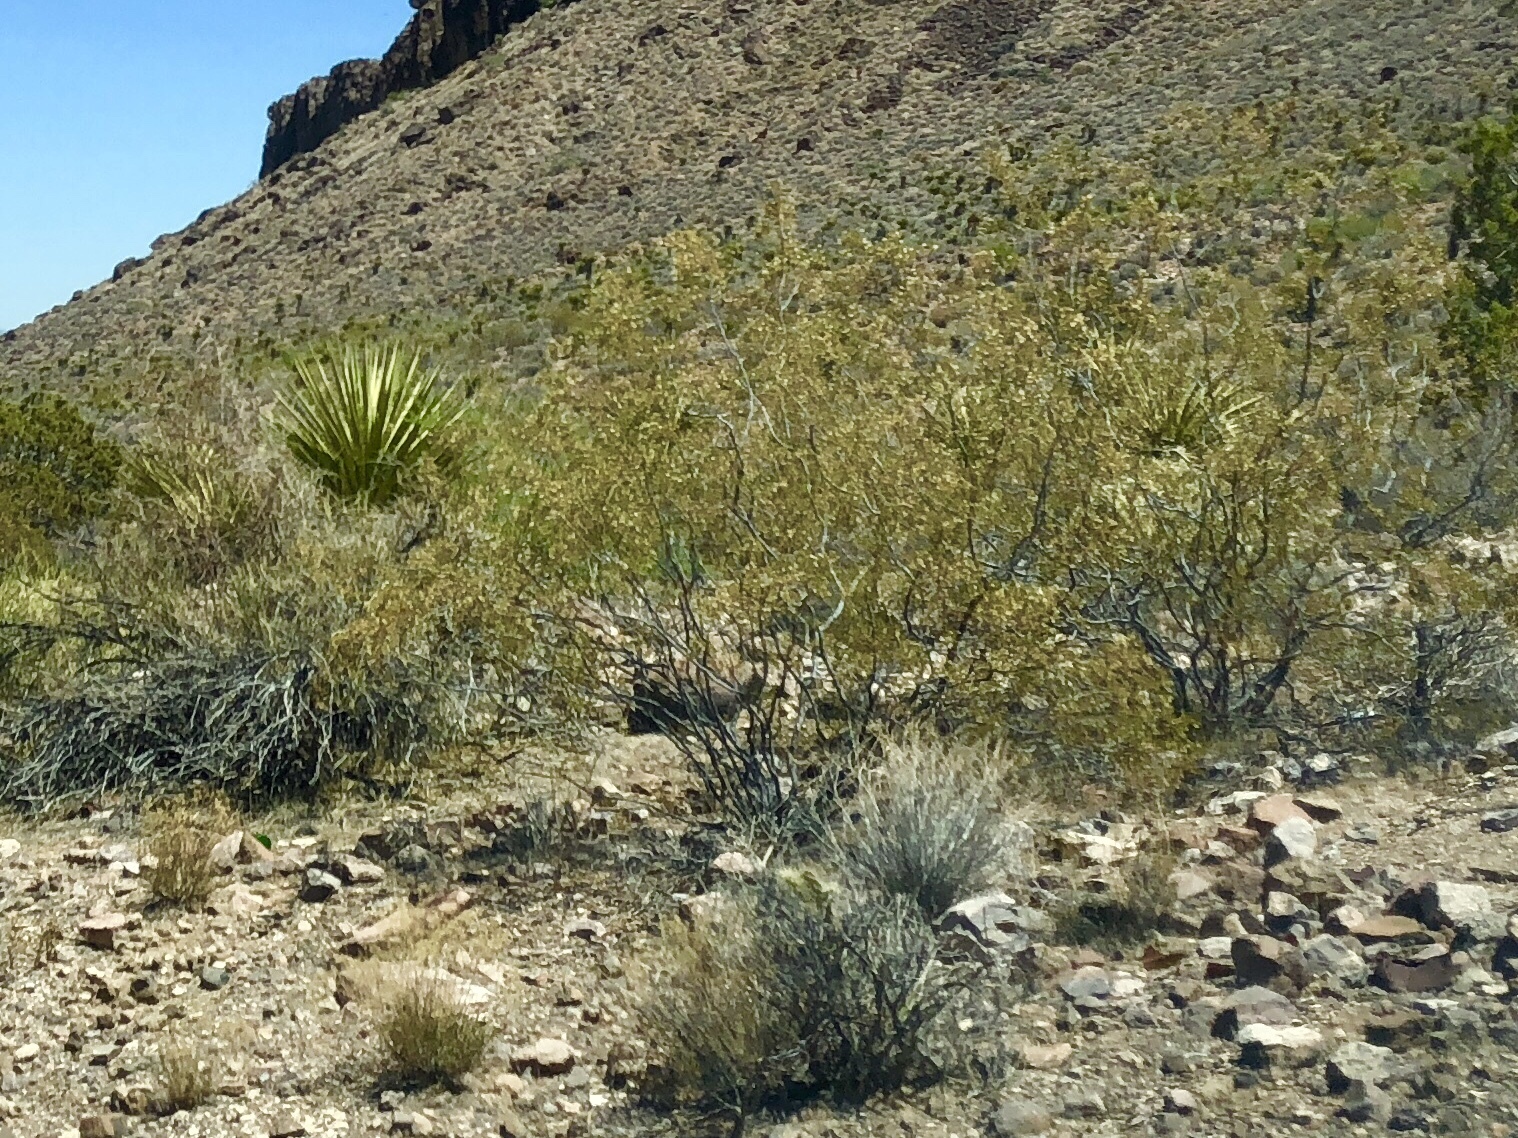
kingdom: Plantae
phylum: Tracheophyta
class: Magnoliopsida
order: Zygophyllales
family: Zygophyllaceae
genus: Larrea
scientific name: Larrea tridentata
